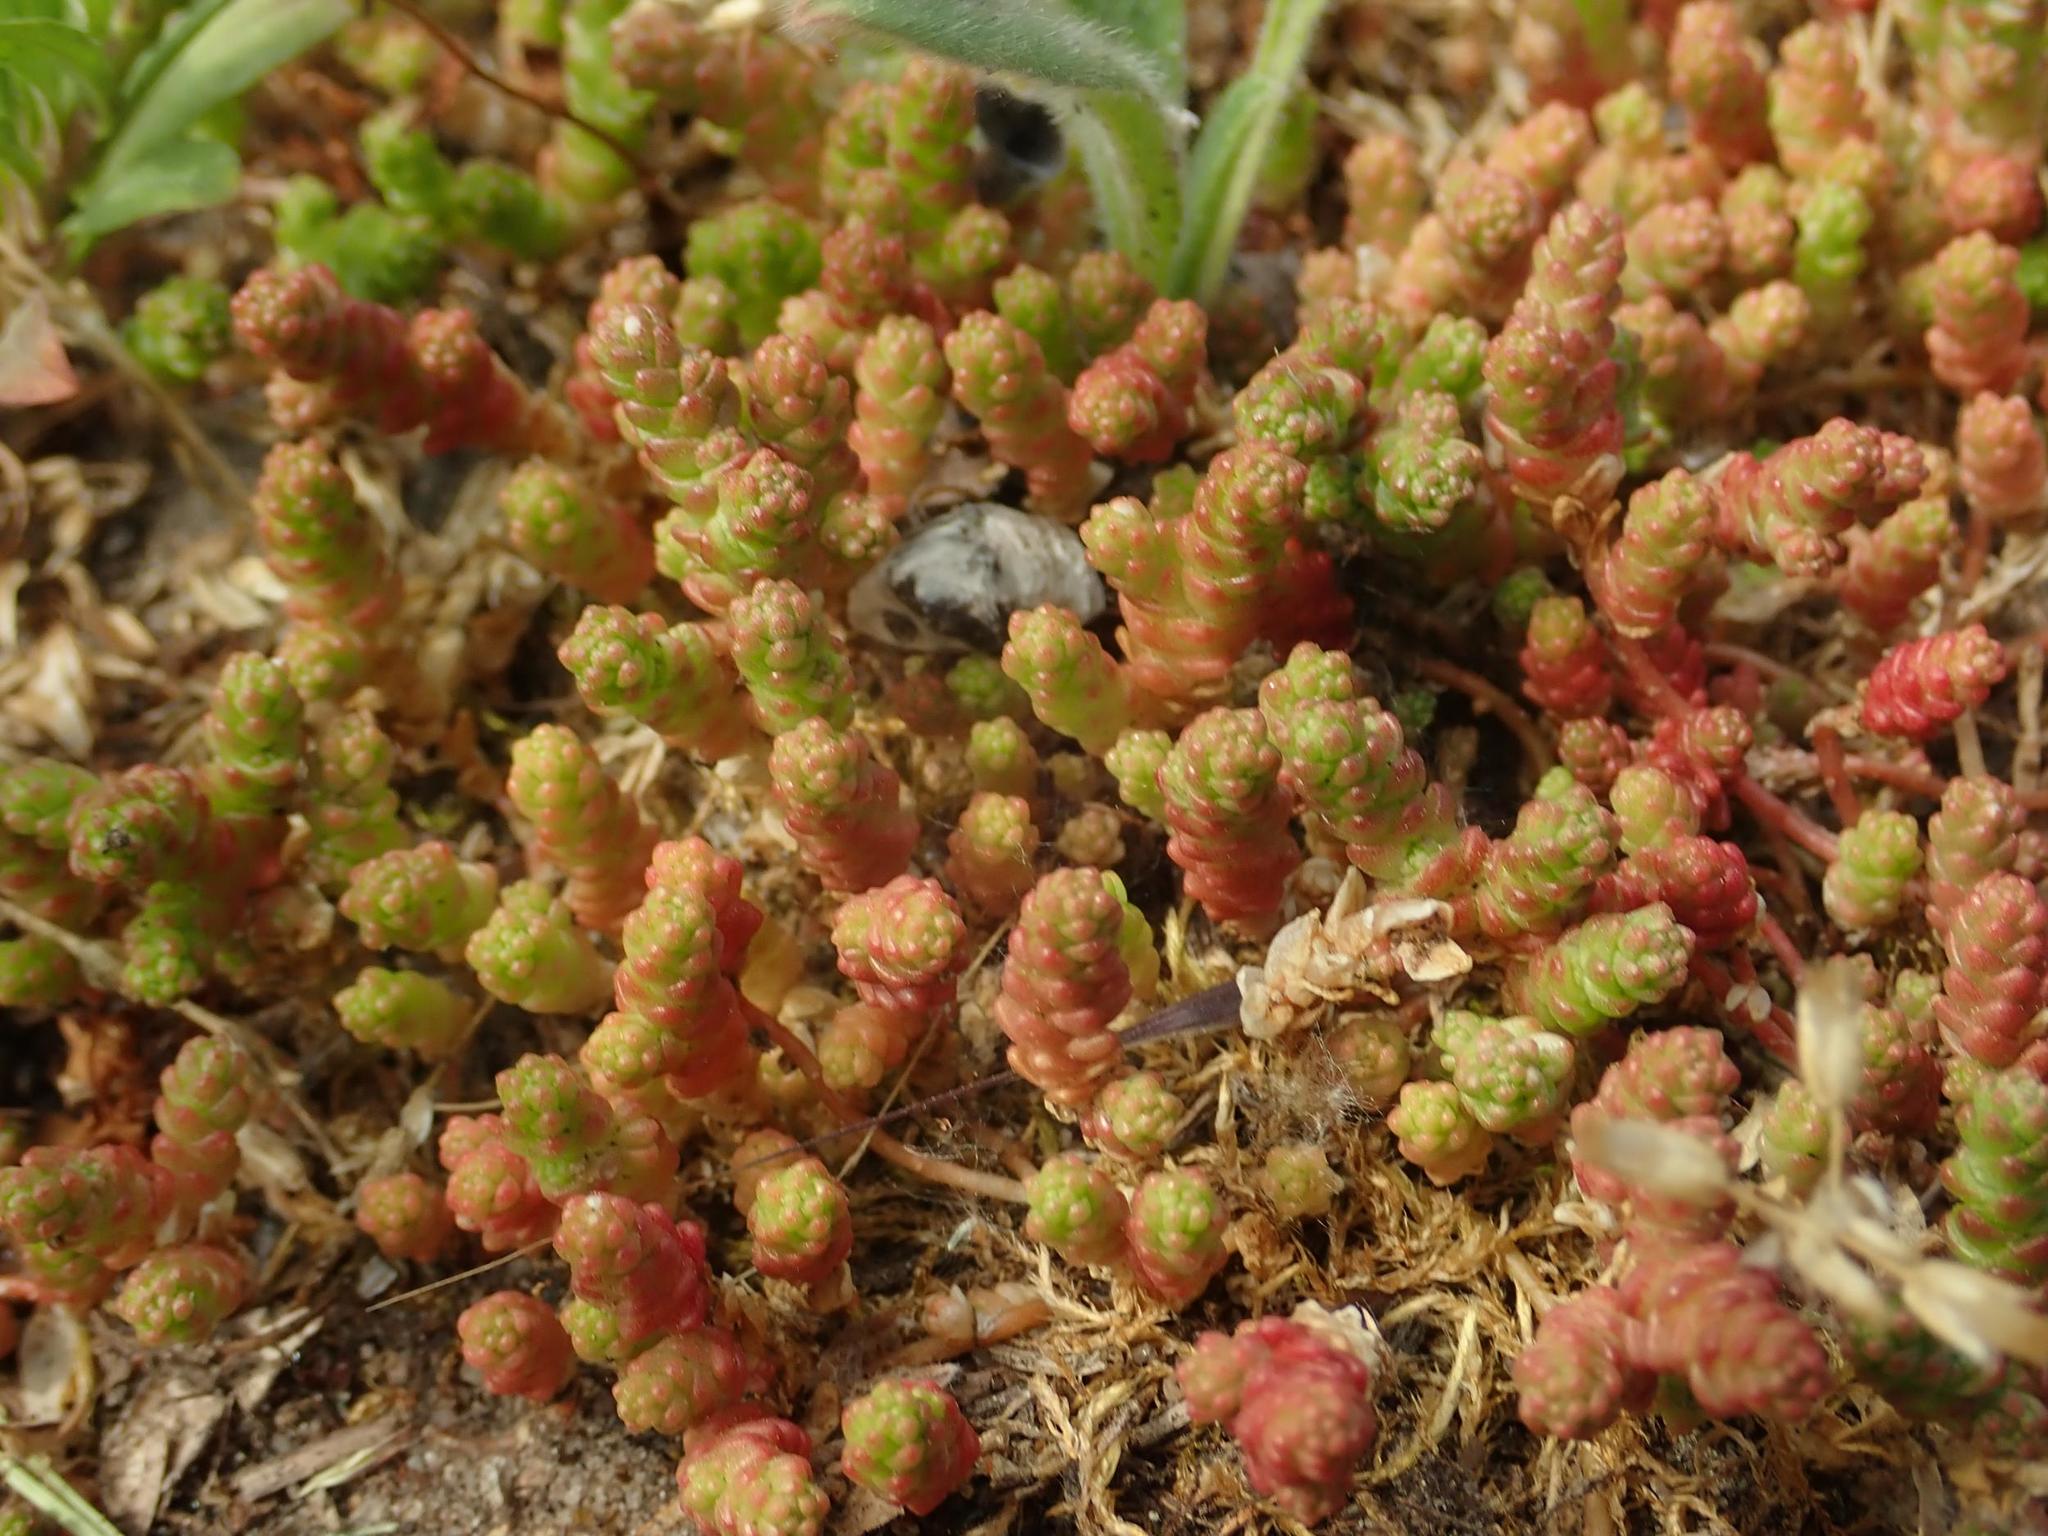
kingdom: Plantae
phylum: Tracheophyta
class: Magnoliopsida
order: Saxifragales
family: Crassulaceae
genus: Sedum
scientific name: Sedum acre
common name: Biting stonecrop
